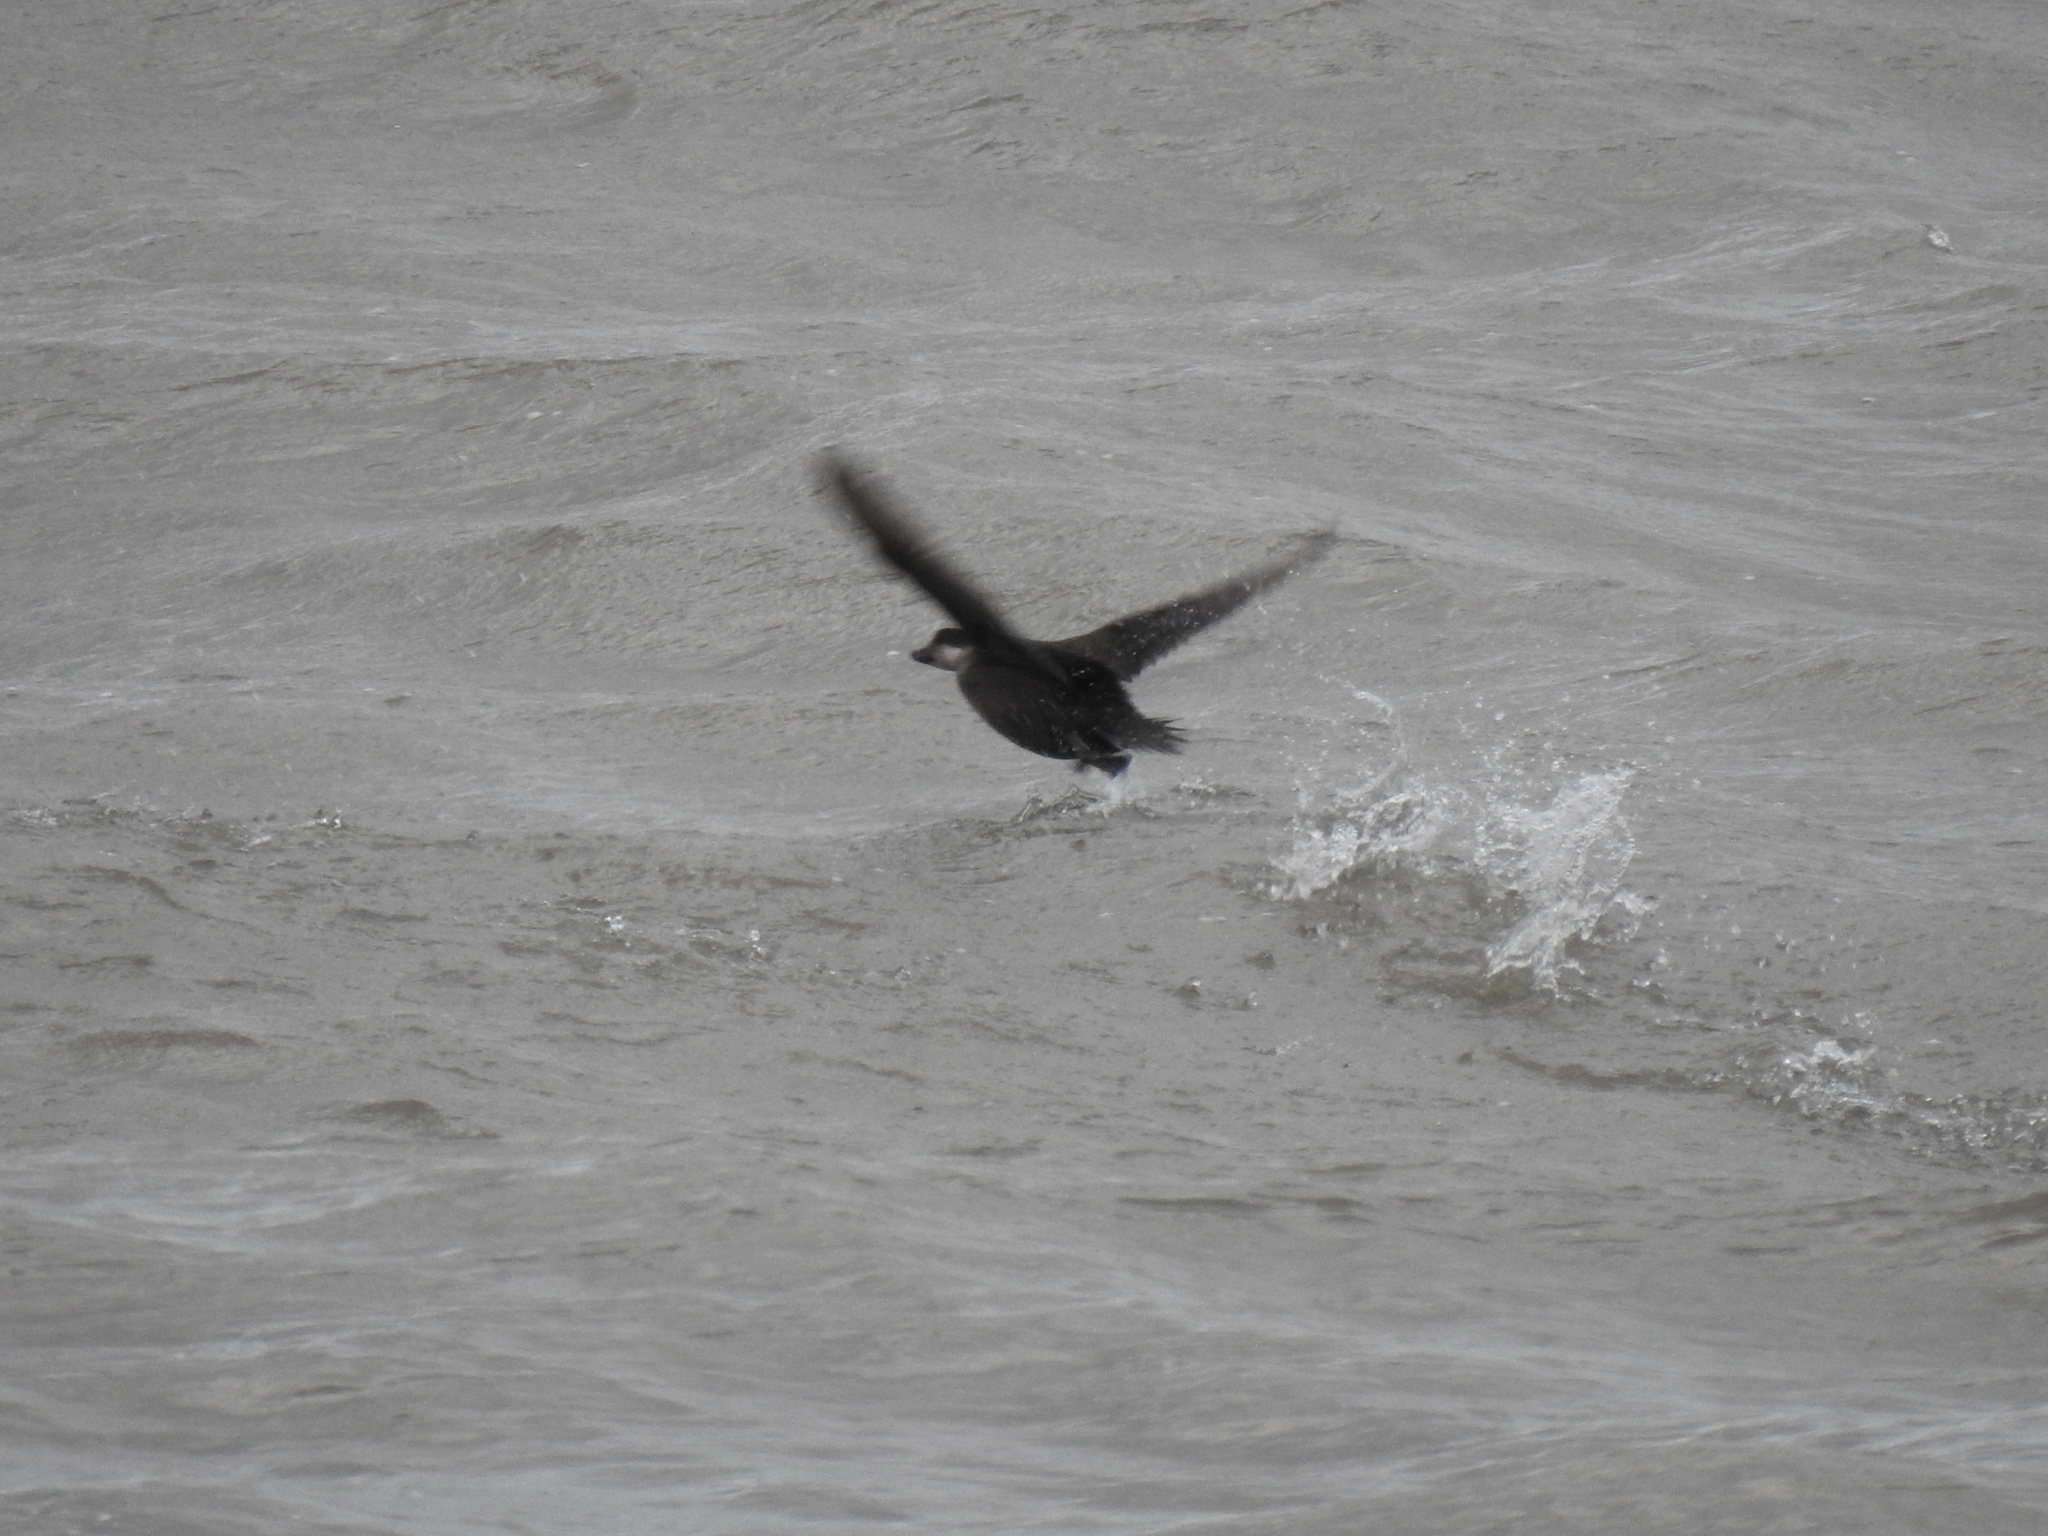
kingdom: Animalia
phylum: Chordata
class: Aves
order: Anseriformes
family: Anatidae
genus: Melanitta
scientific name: Melanitta americana
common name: Black scoter
